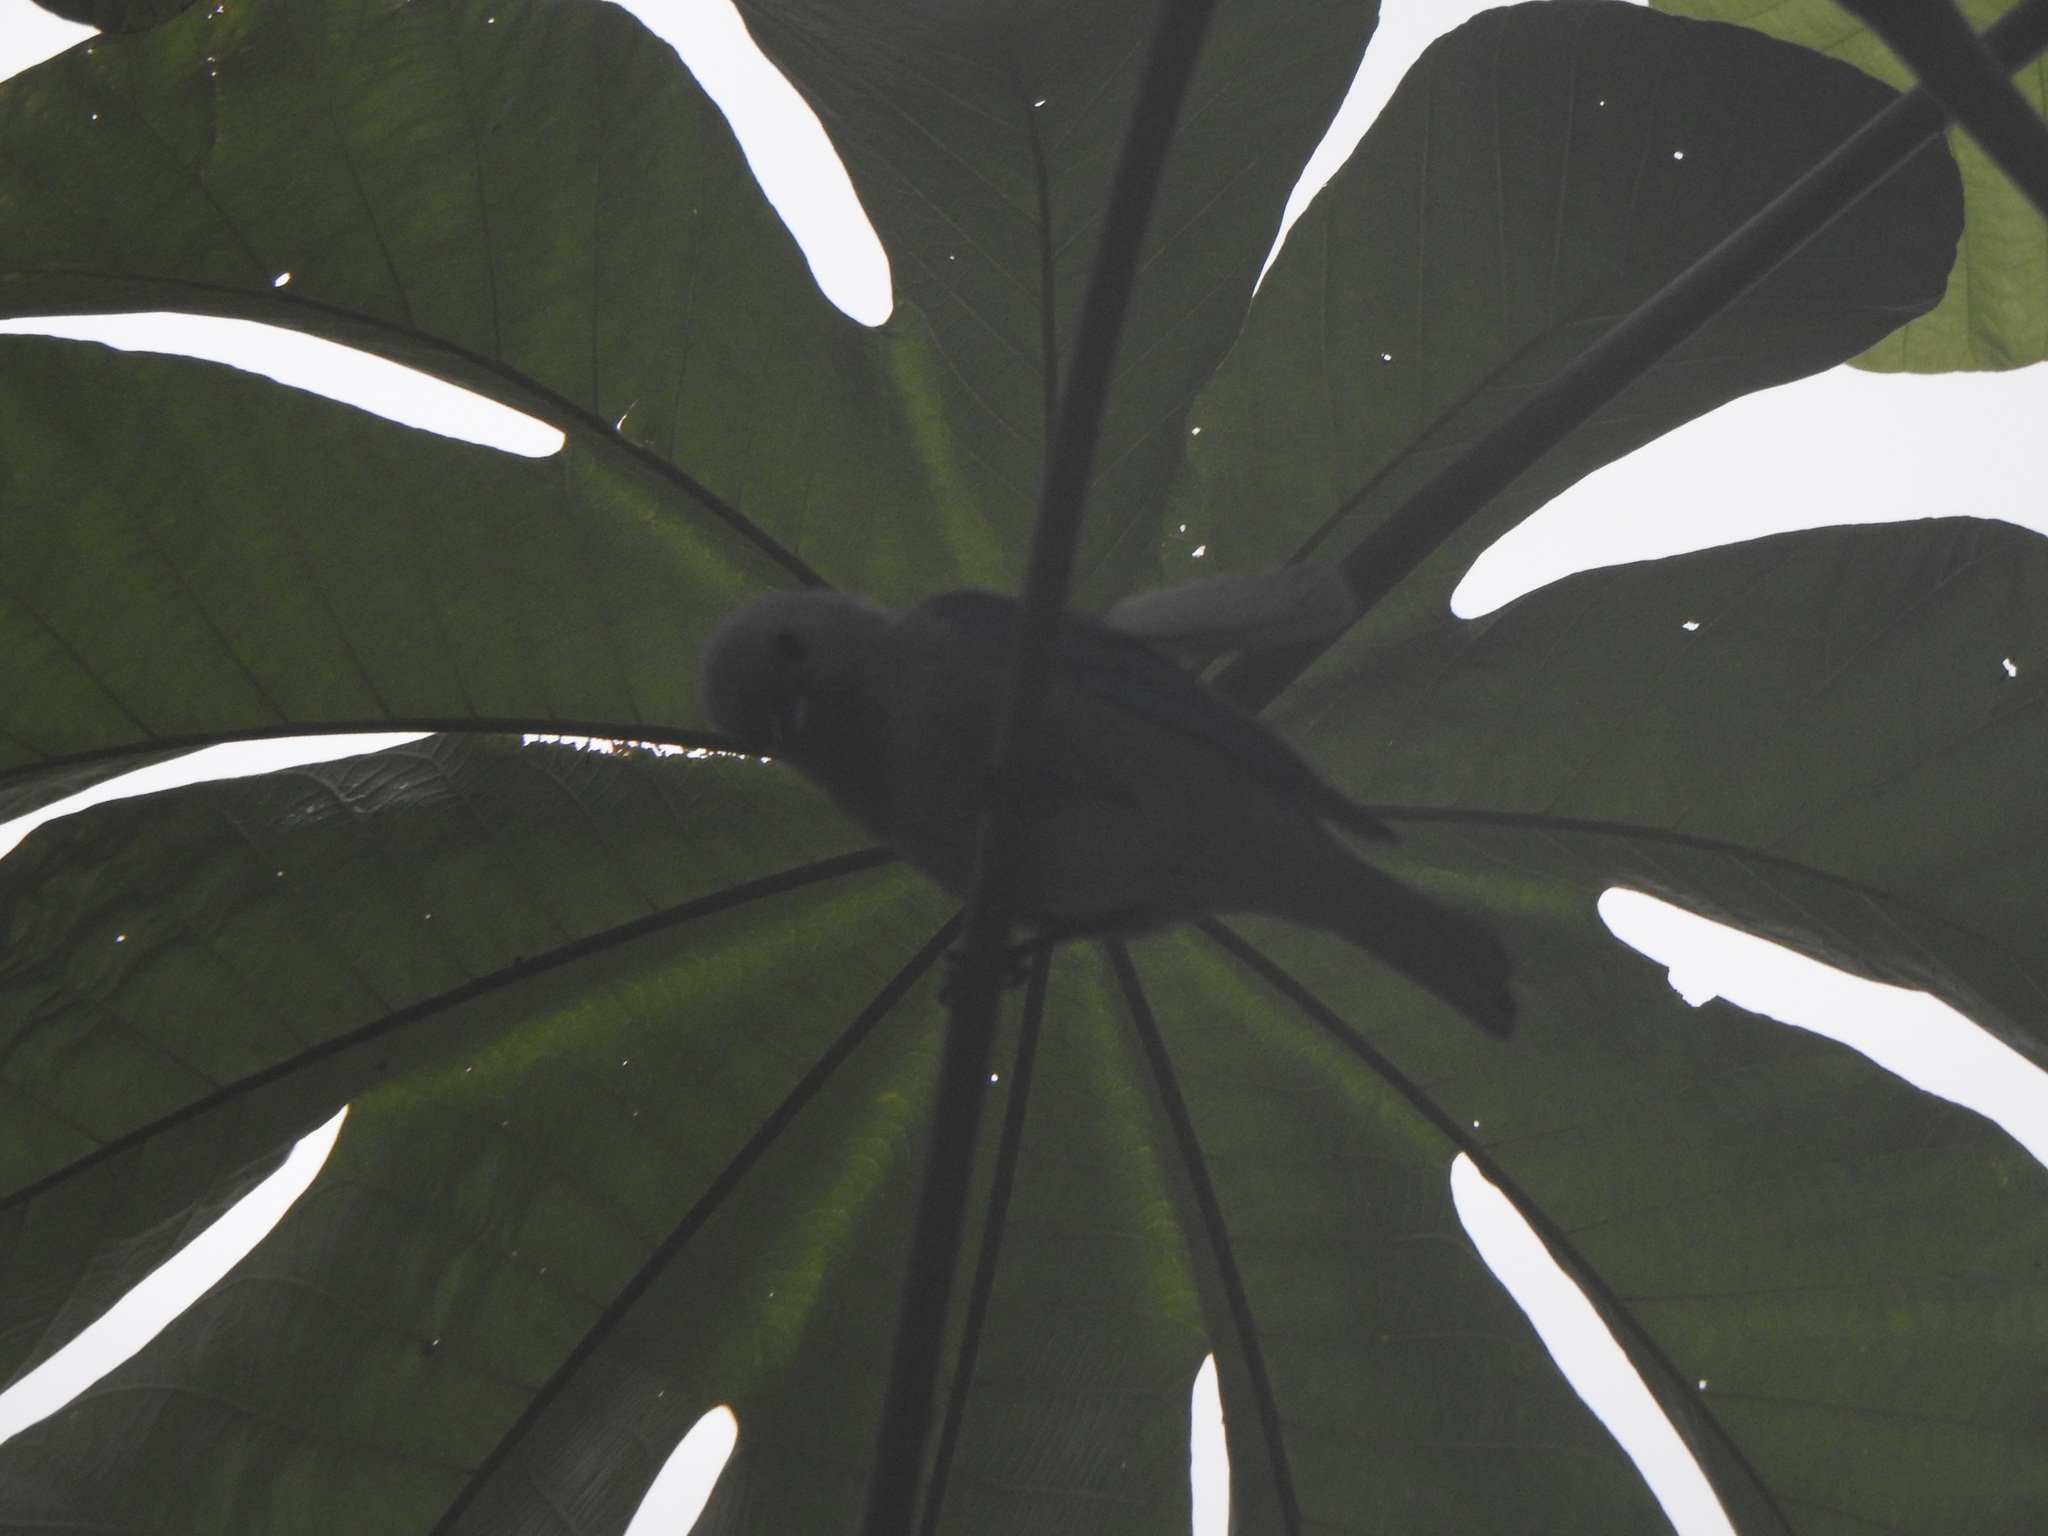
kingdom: Animalia
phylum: Chordata
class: Aves
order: Passeriformes
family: Thraupidae
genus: Thraupis
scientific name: Thraupis episcopus
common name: Blue-grey tanager
